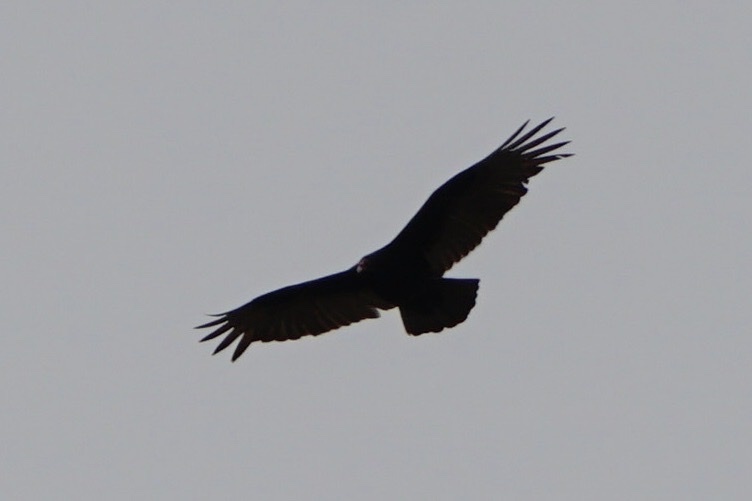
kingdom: Animalia
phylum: Chordata
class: Aves
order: Accipitriformes
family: Cathartidae
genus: Cathartes
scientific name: Cathartes aura
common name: Turkey vulture
